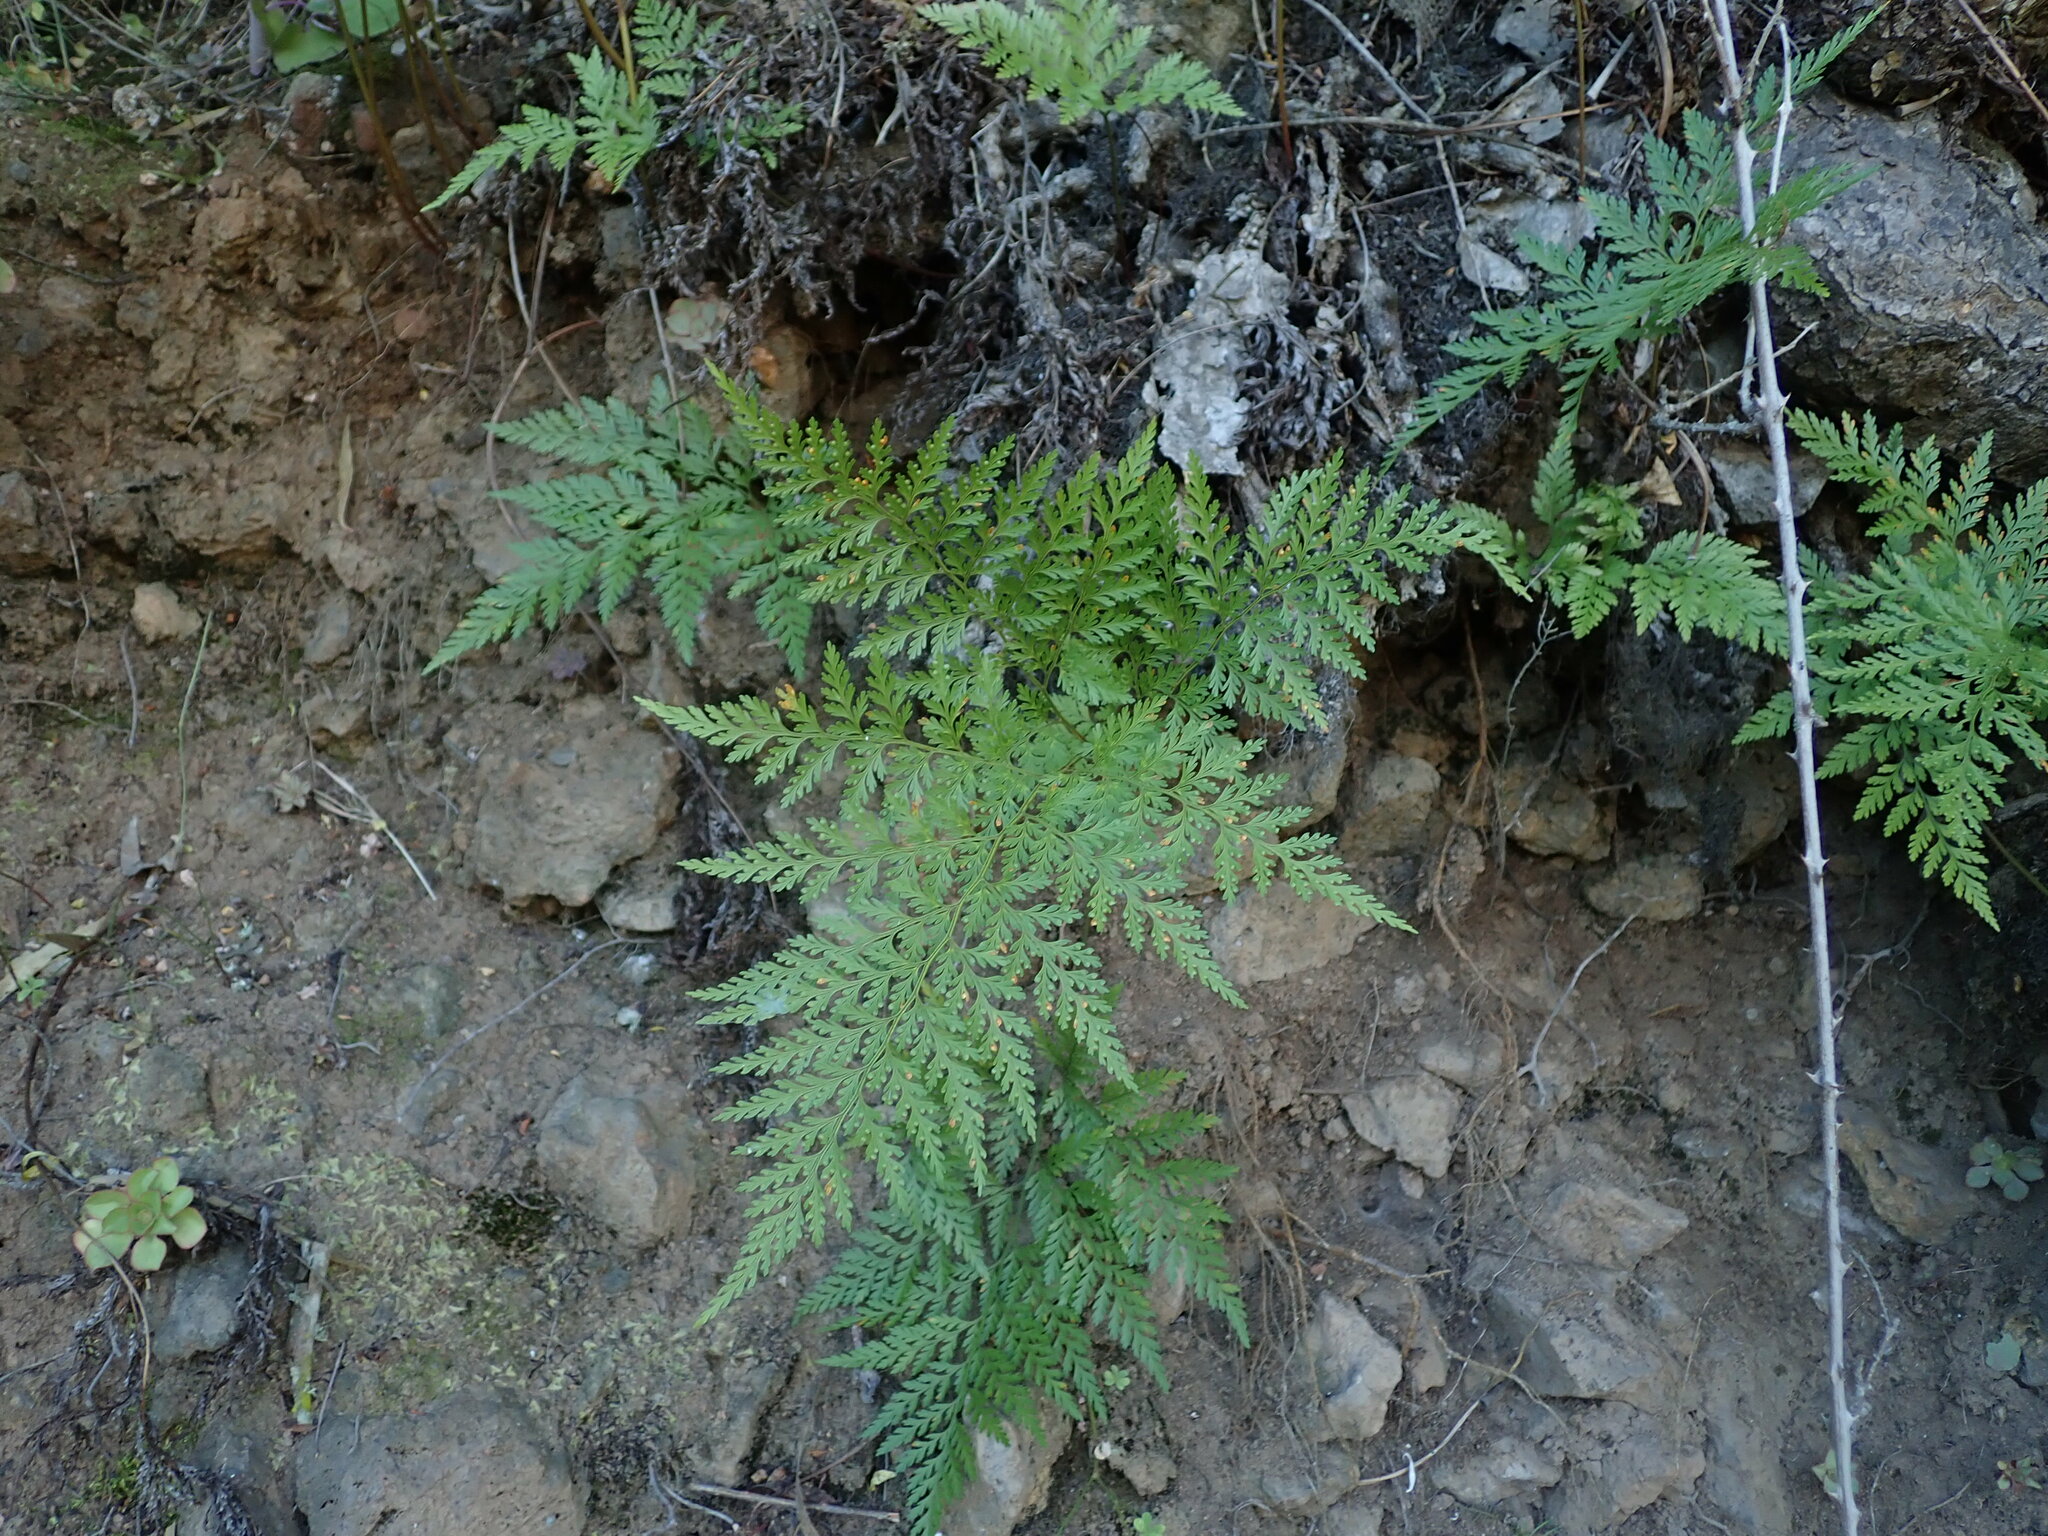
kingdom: Plantae
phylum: Tracheophyta
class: Polypodiopsida
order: Polypodiales
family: Davalliaceae
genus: Davallia
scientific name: Davallia canariensis
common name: Hare's-foot fern
